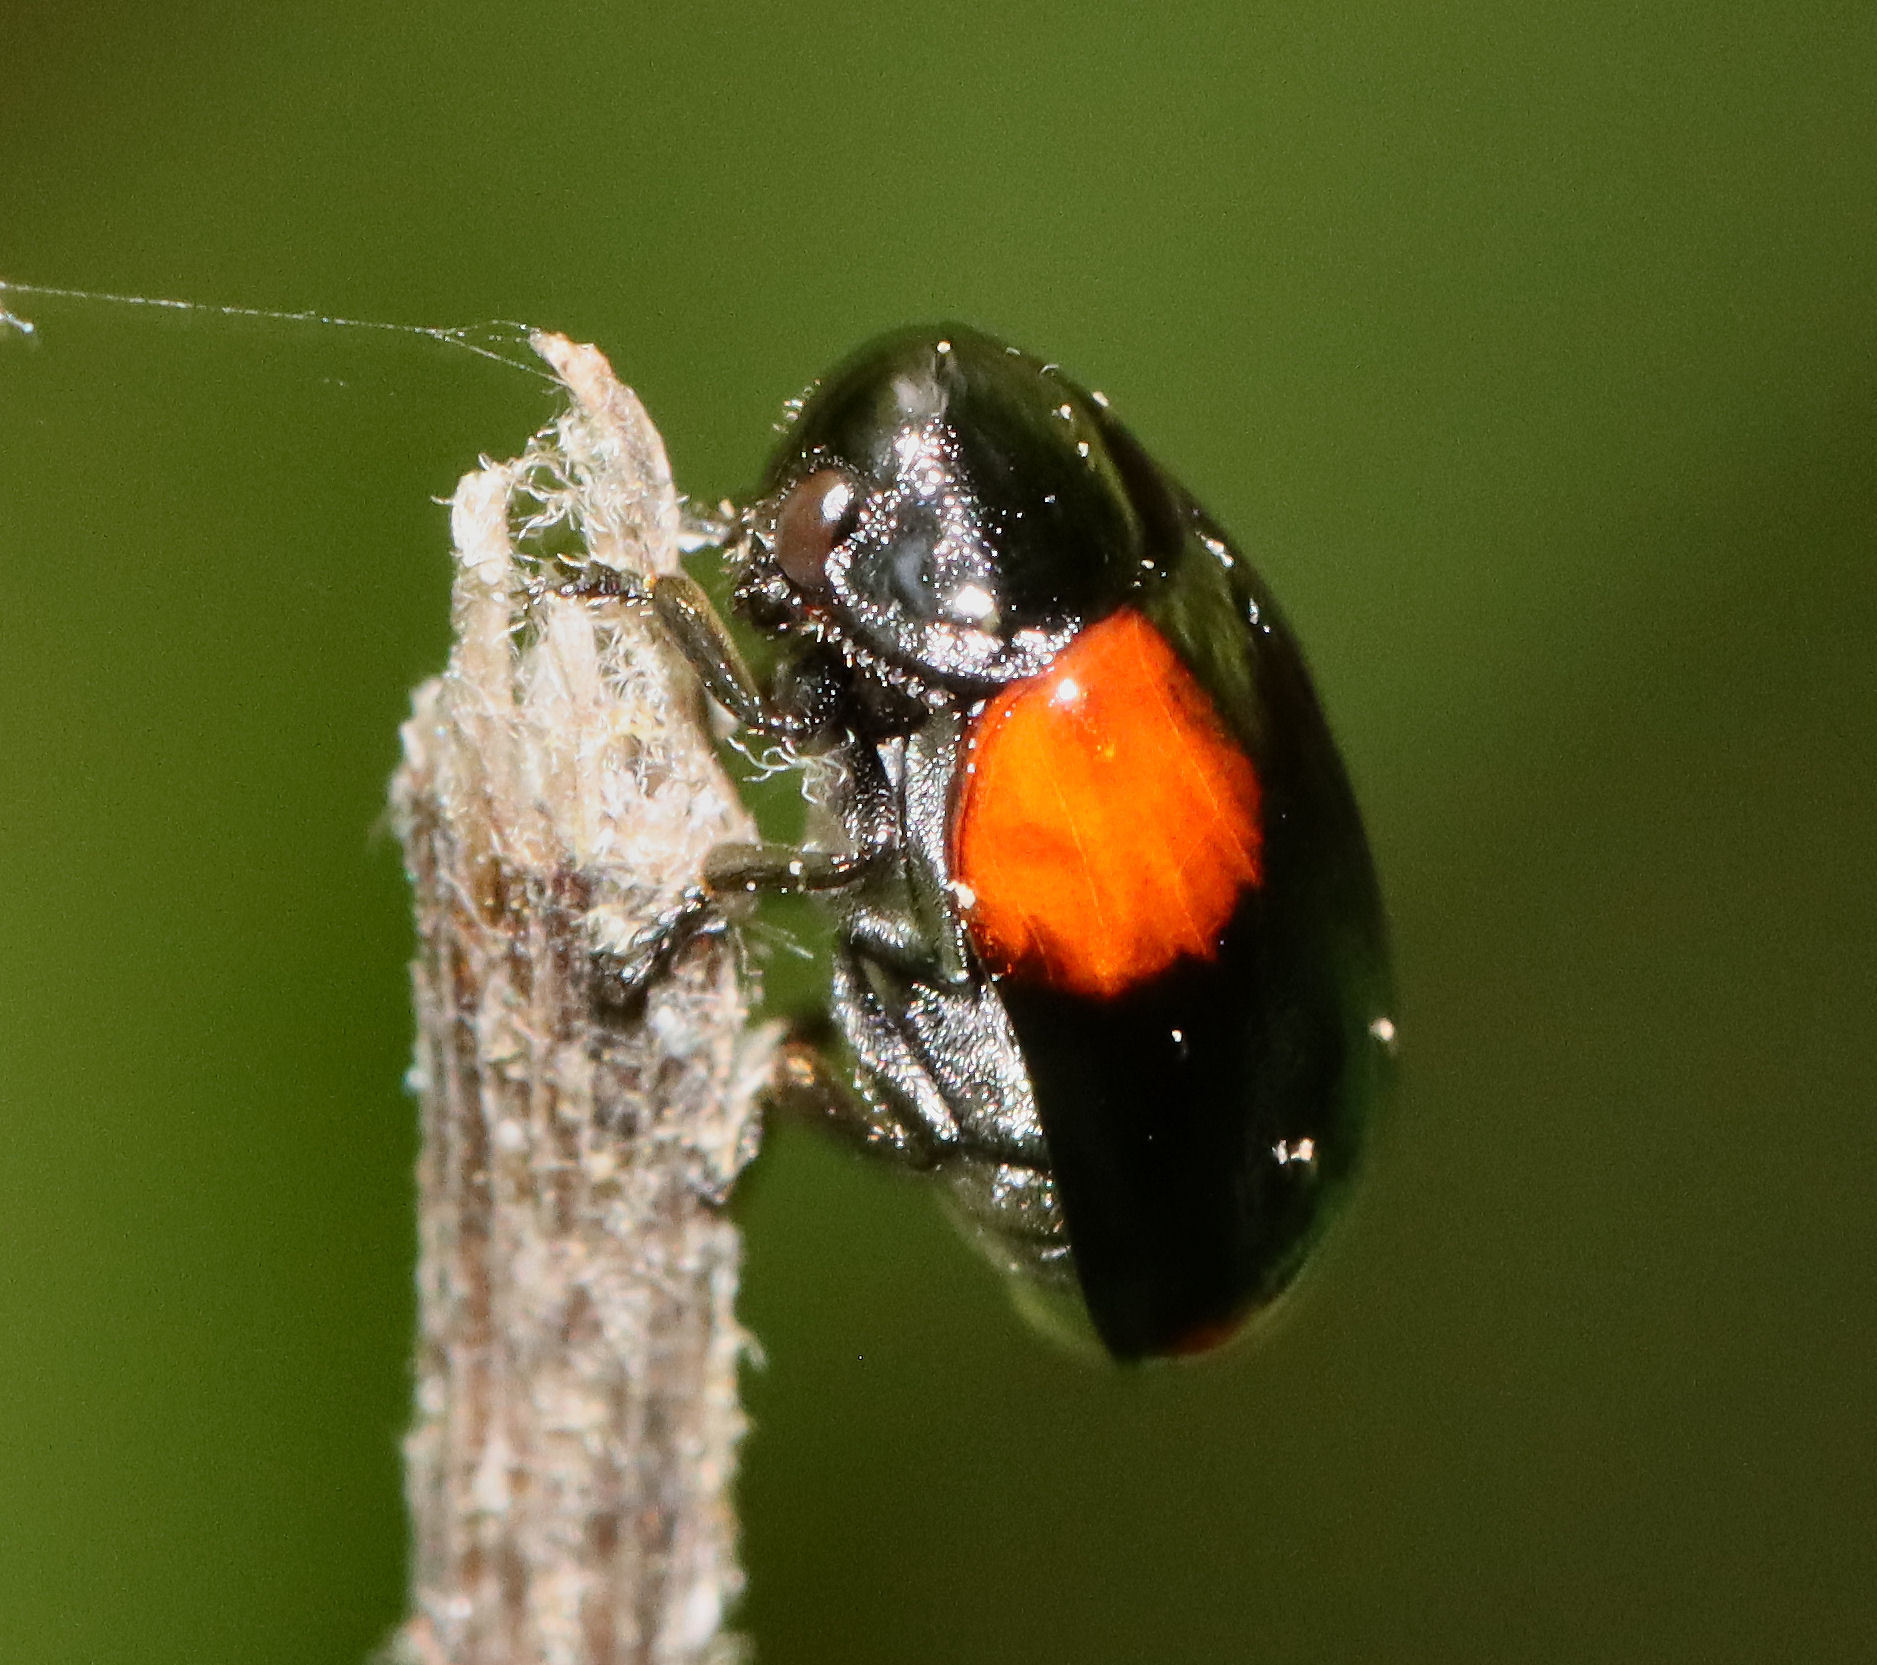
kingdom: Animalia
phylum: Arthropoda
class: Insecta
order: Coleoptera
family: Chrysomelidae
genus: Babia
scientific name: Babia quadriguttata
